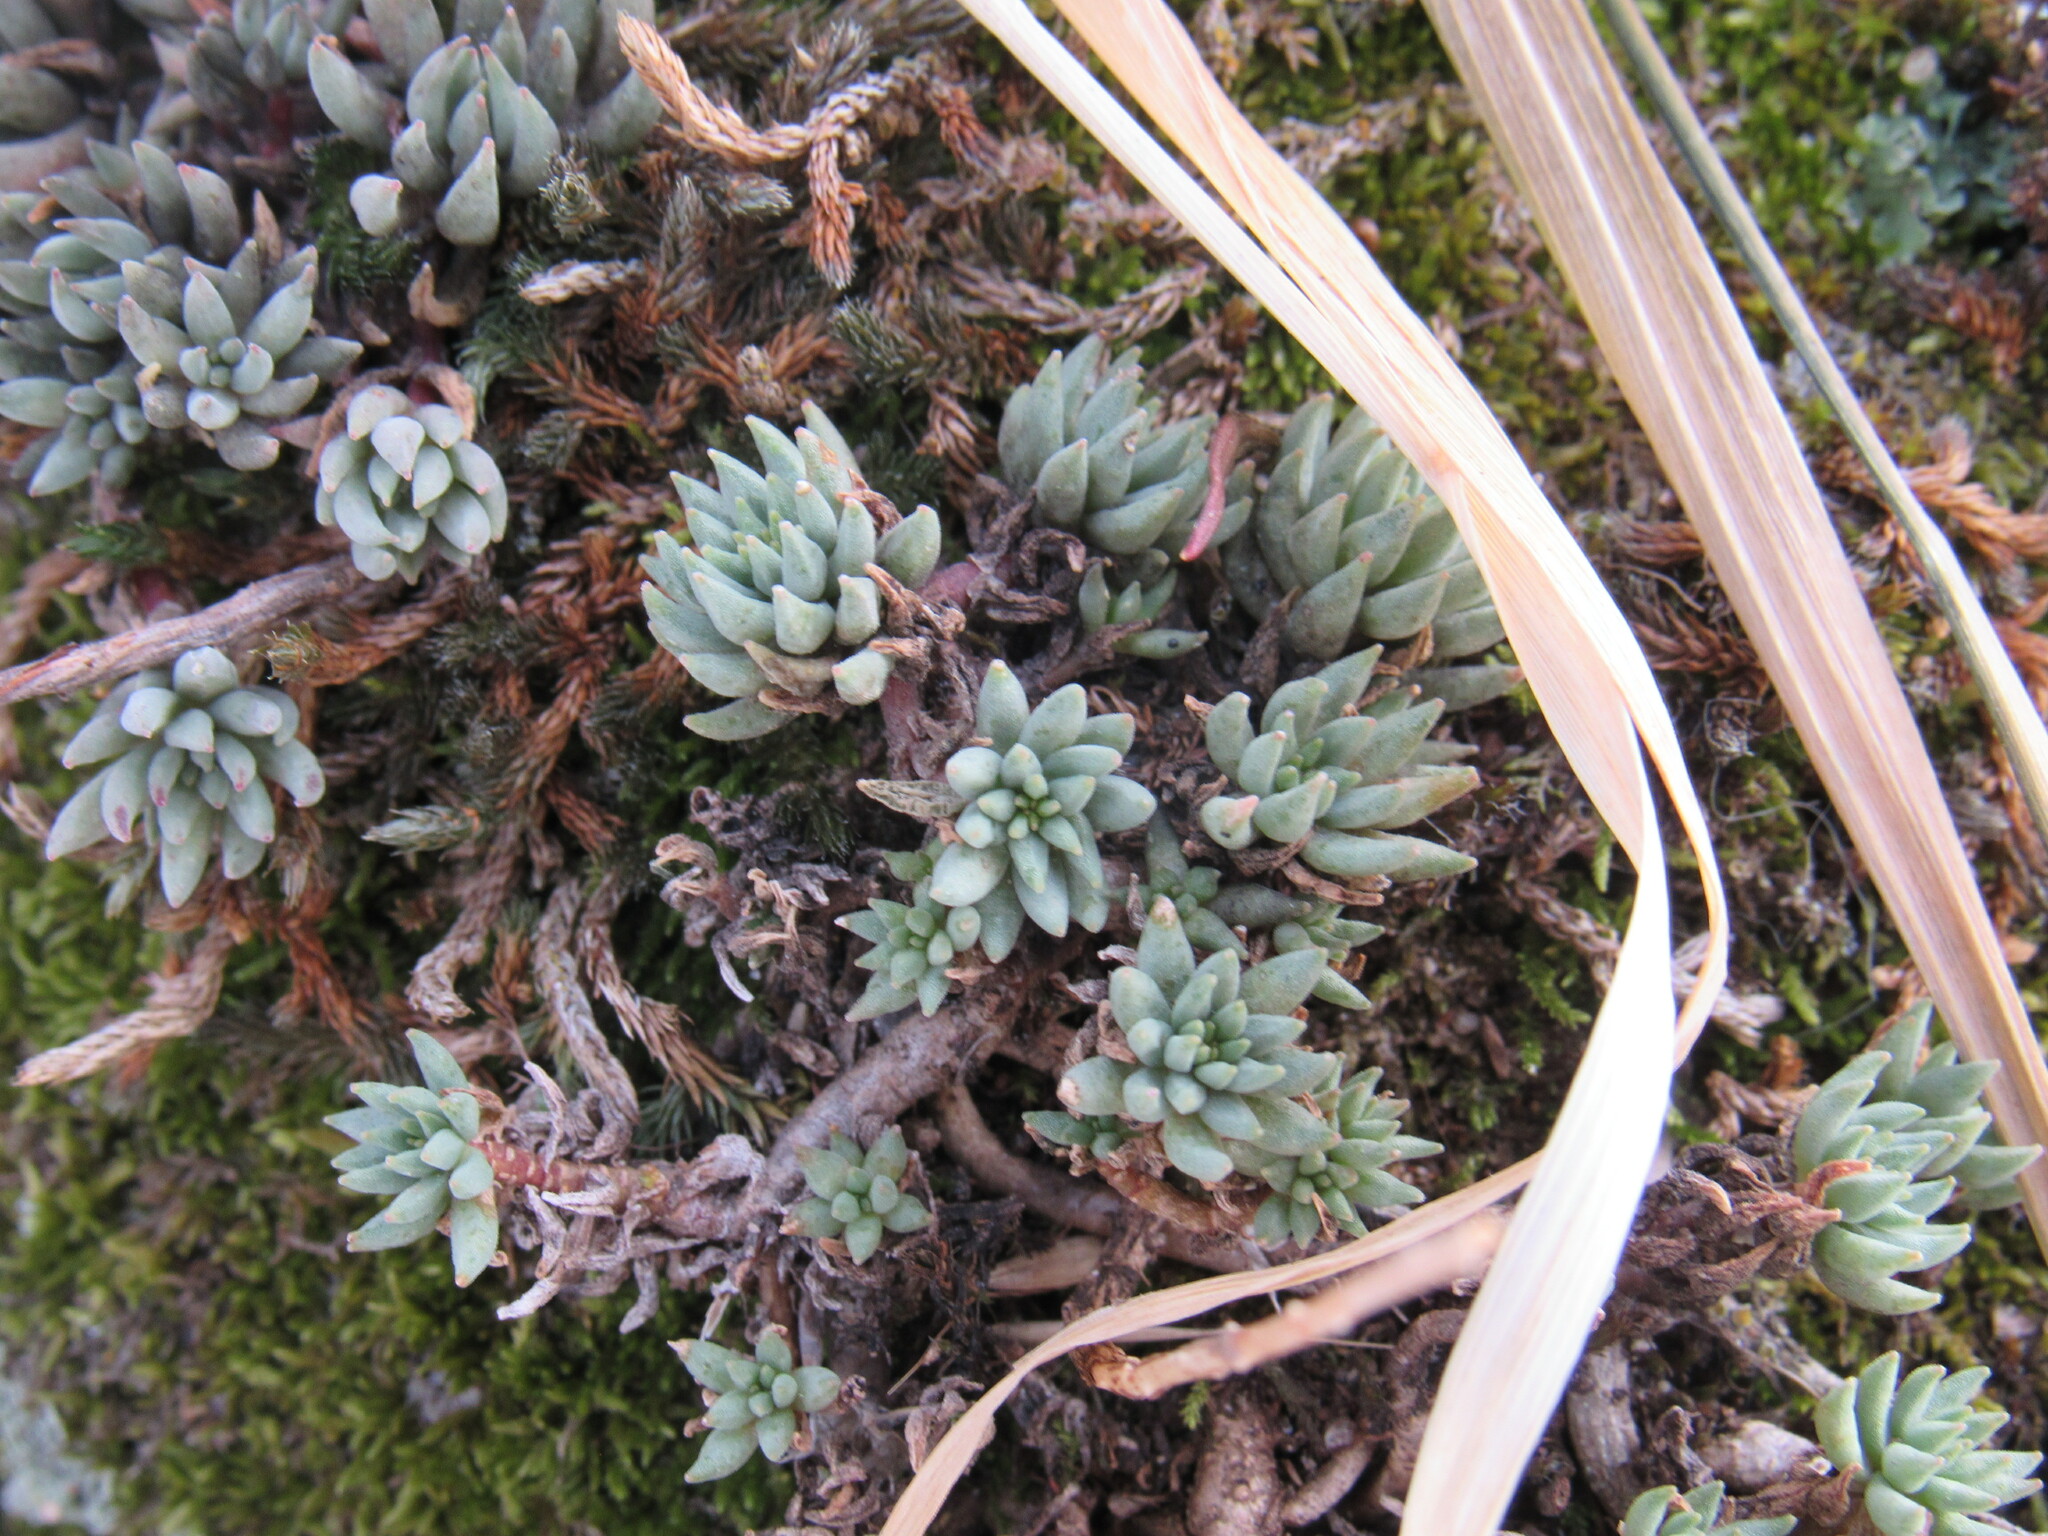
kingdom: Plantae
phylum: Tracheophyta
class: Magnoliopsida
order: Saxifragales
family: Crassulaceae
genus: Sedum
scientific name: Sedum lanceolatum
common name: Common stonecrop
